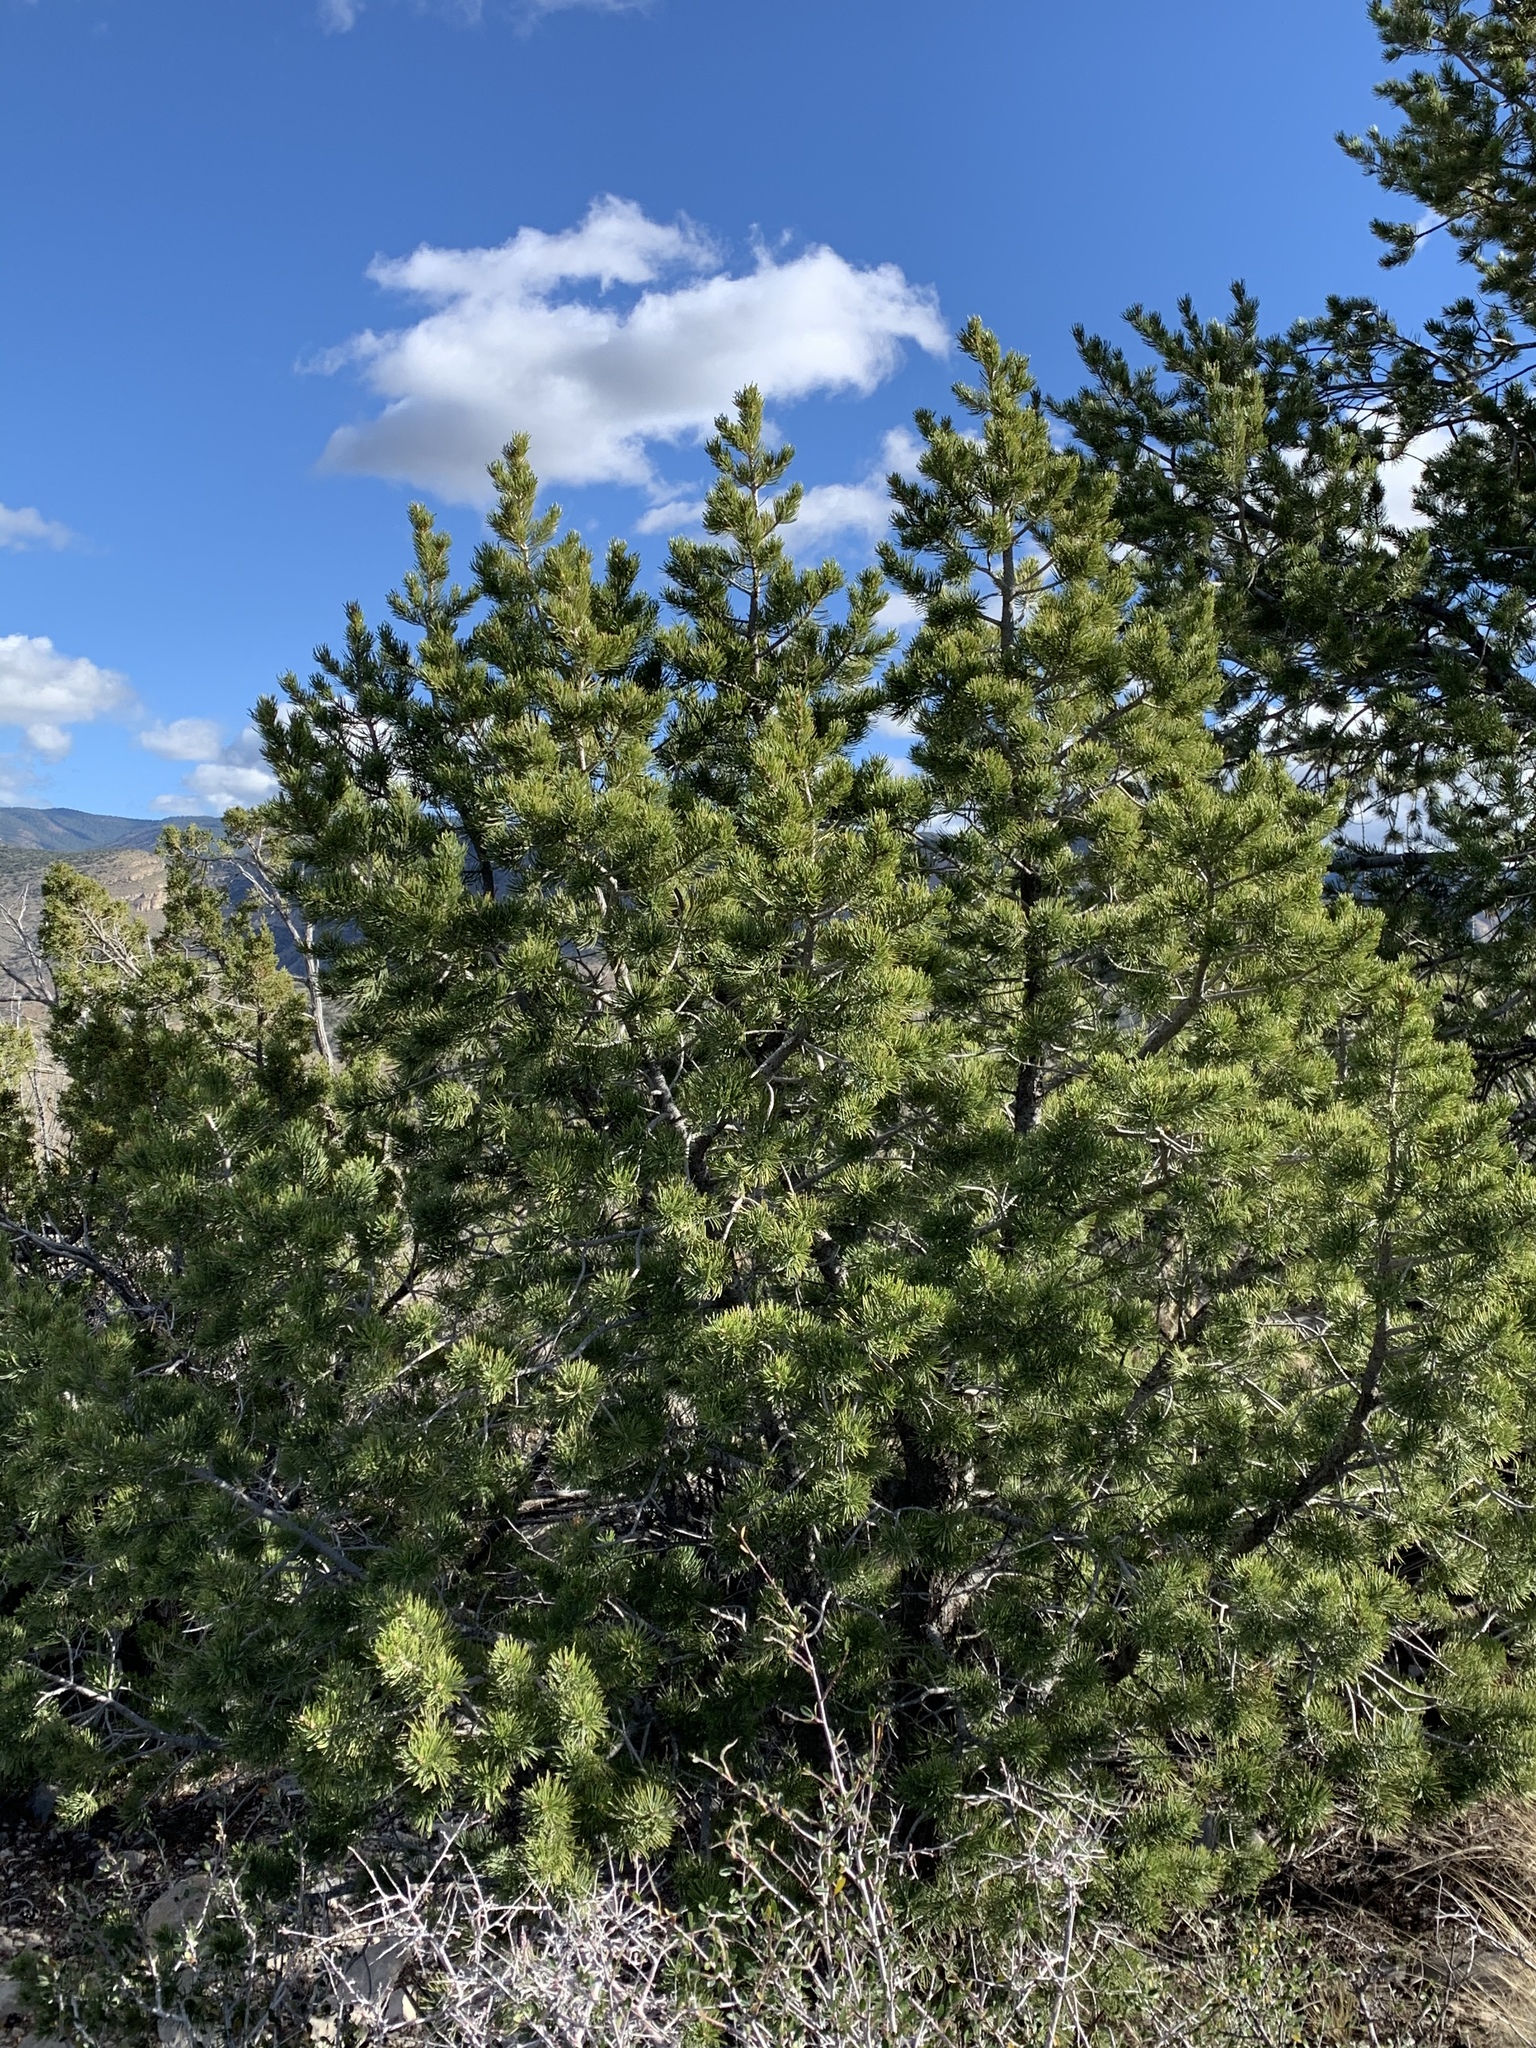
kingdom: Plantae
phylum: Tracheophyta
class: Pinopsida
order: Pinales
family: Pinaceae
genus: Pinus
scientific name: Pinus edulis
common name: Colorado pinyon
